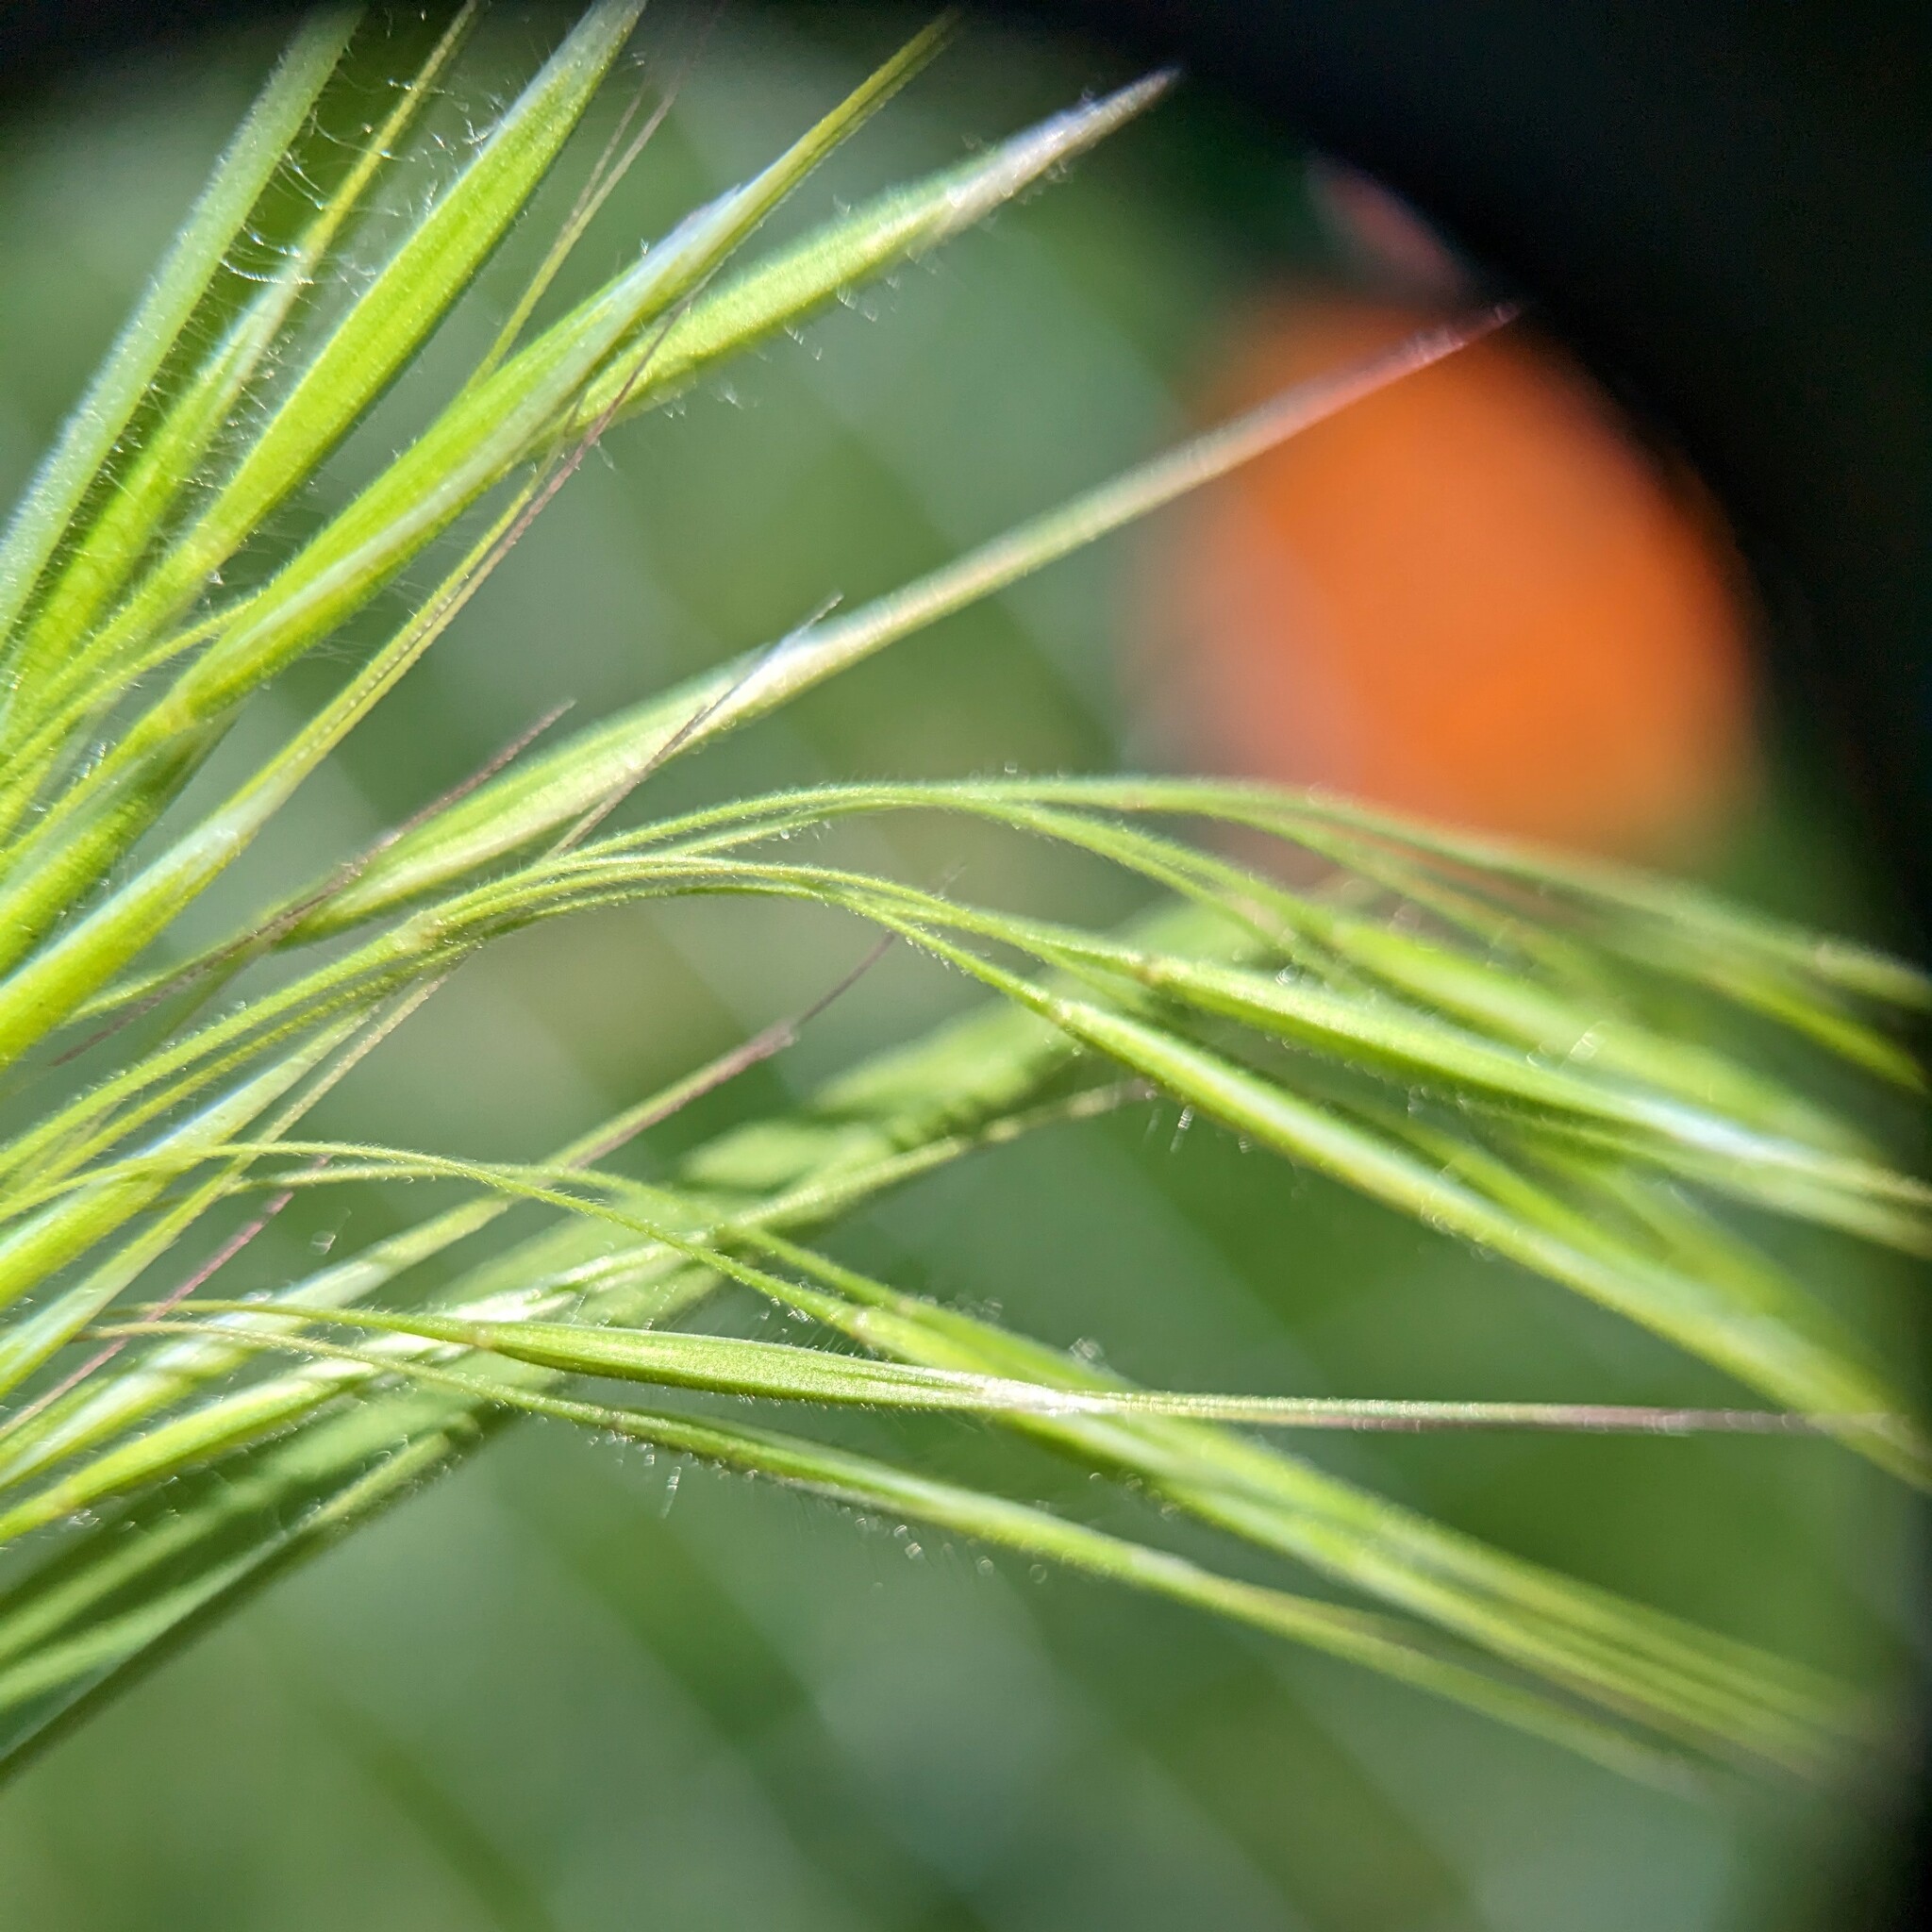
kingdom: Plantae
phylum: Tracheophyta
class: Liliopsida
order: Poales
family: Poaceae
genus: Bromus
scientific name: Bromus tectorum
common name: Cheatgrass
